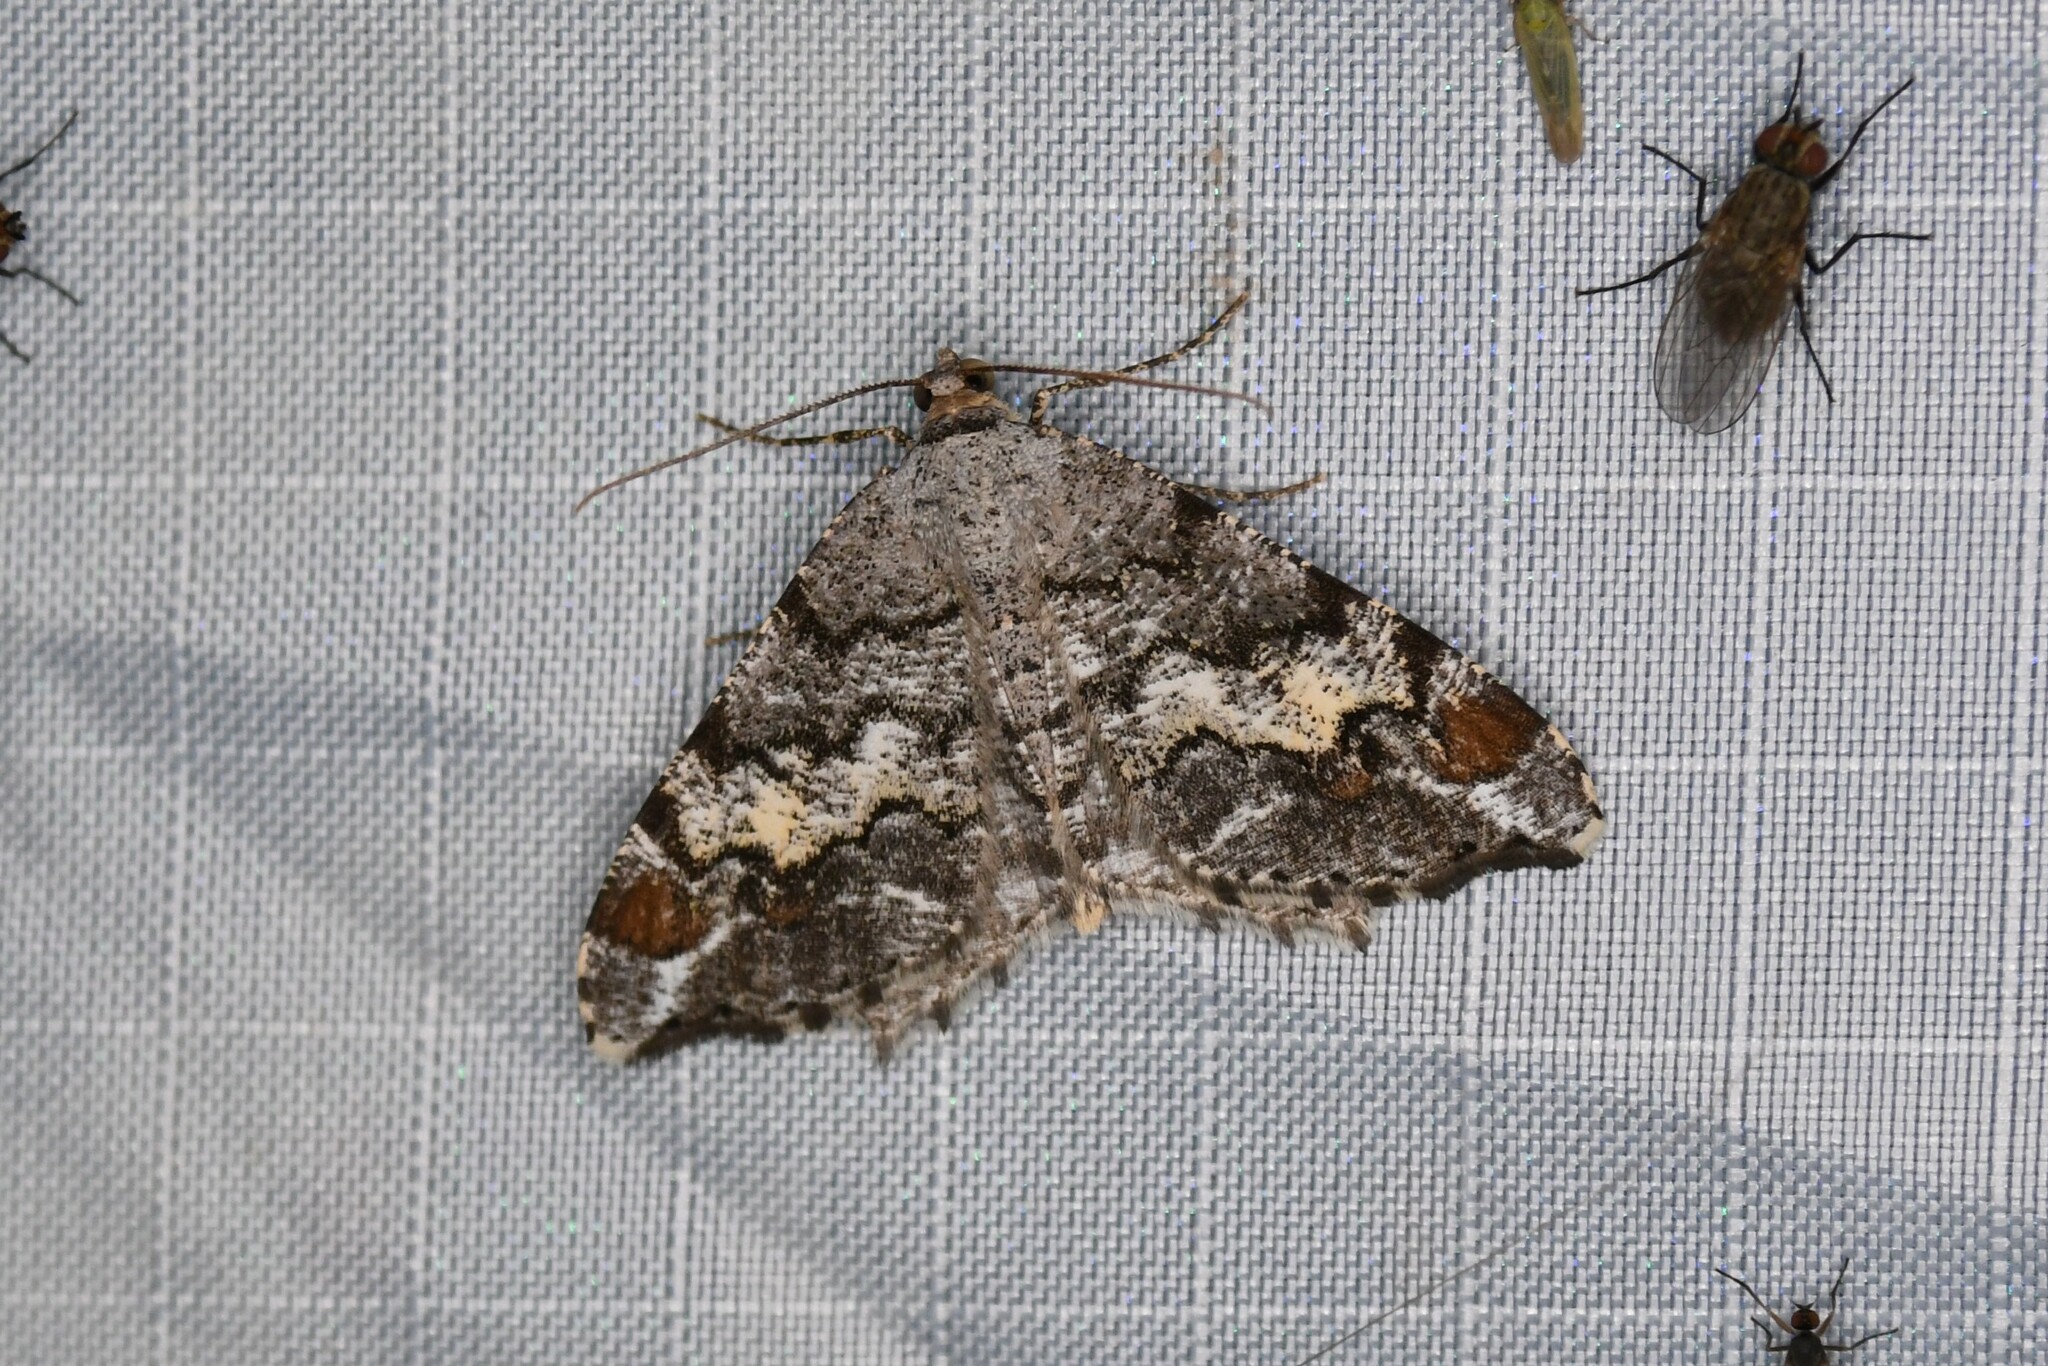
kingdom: Animalia
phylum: Arthropoda
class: Insecta
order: Lepidoptera
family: Geometridae
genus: Macaria
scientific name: Macaria granitata
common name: Granite moth
